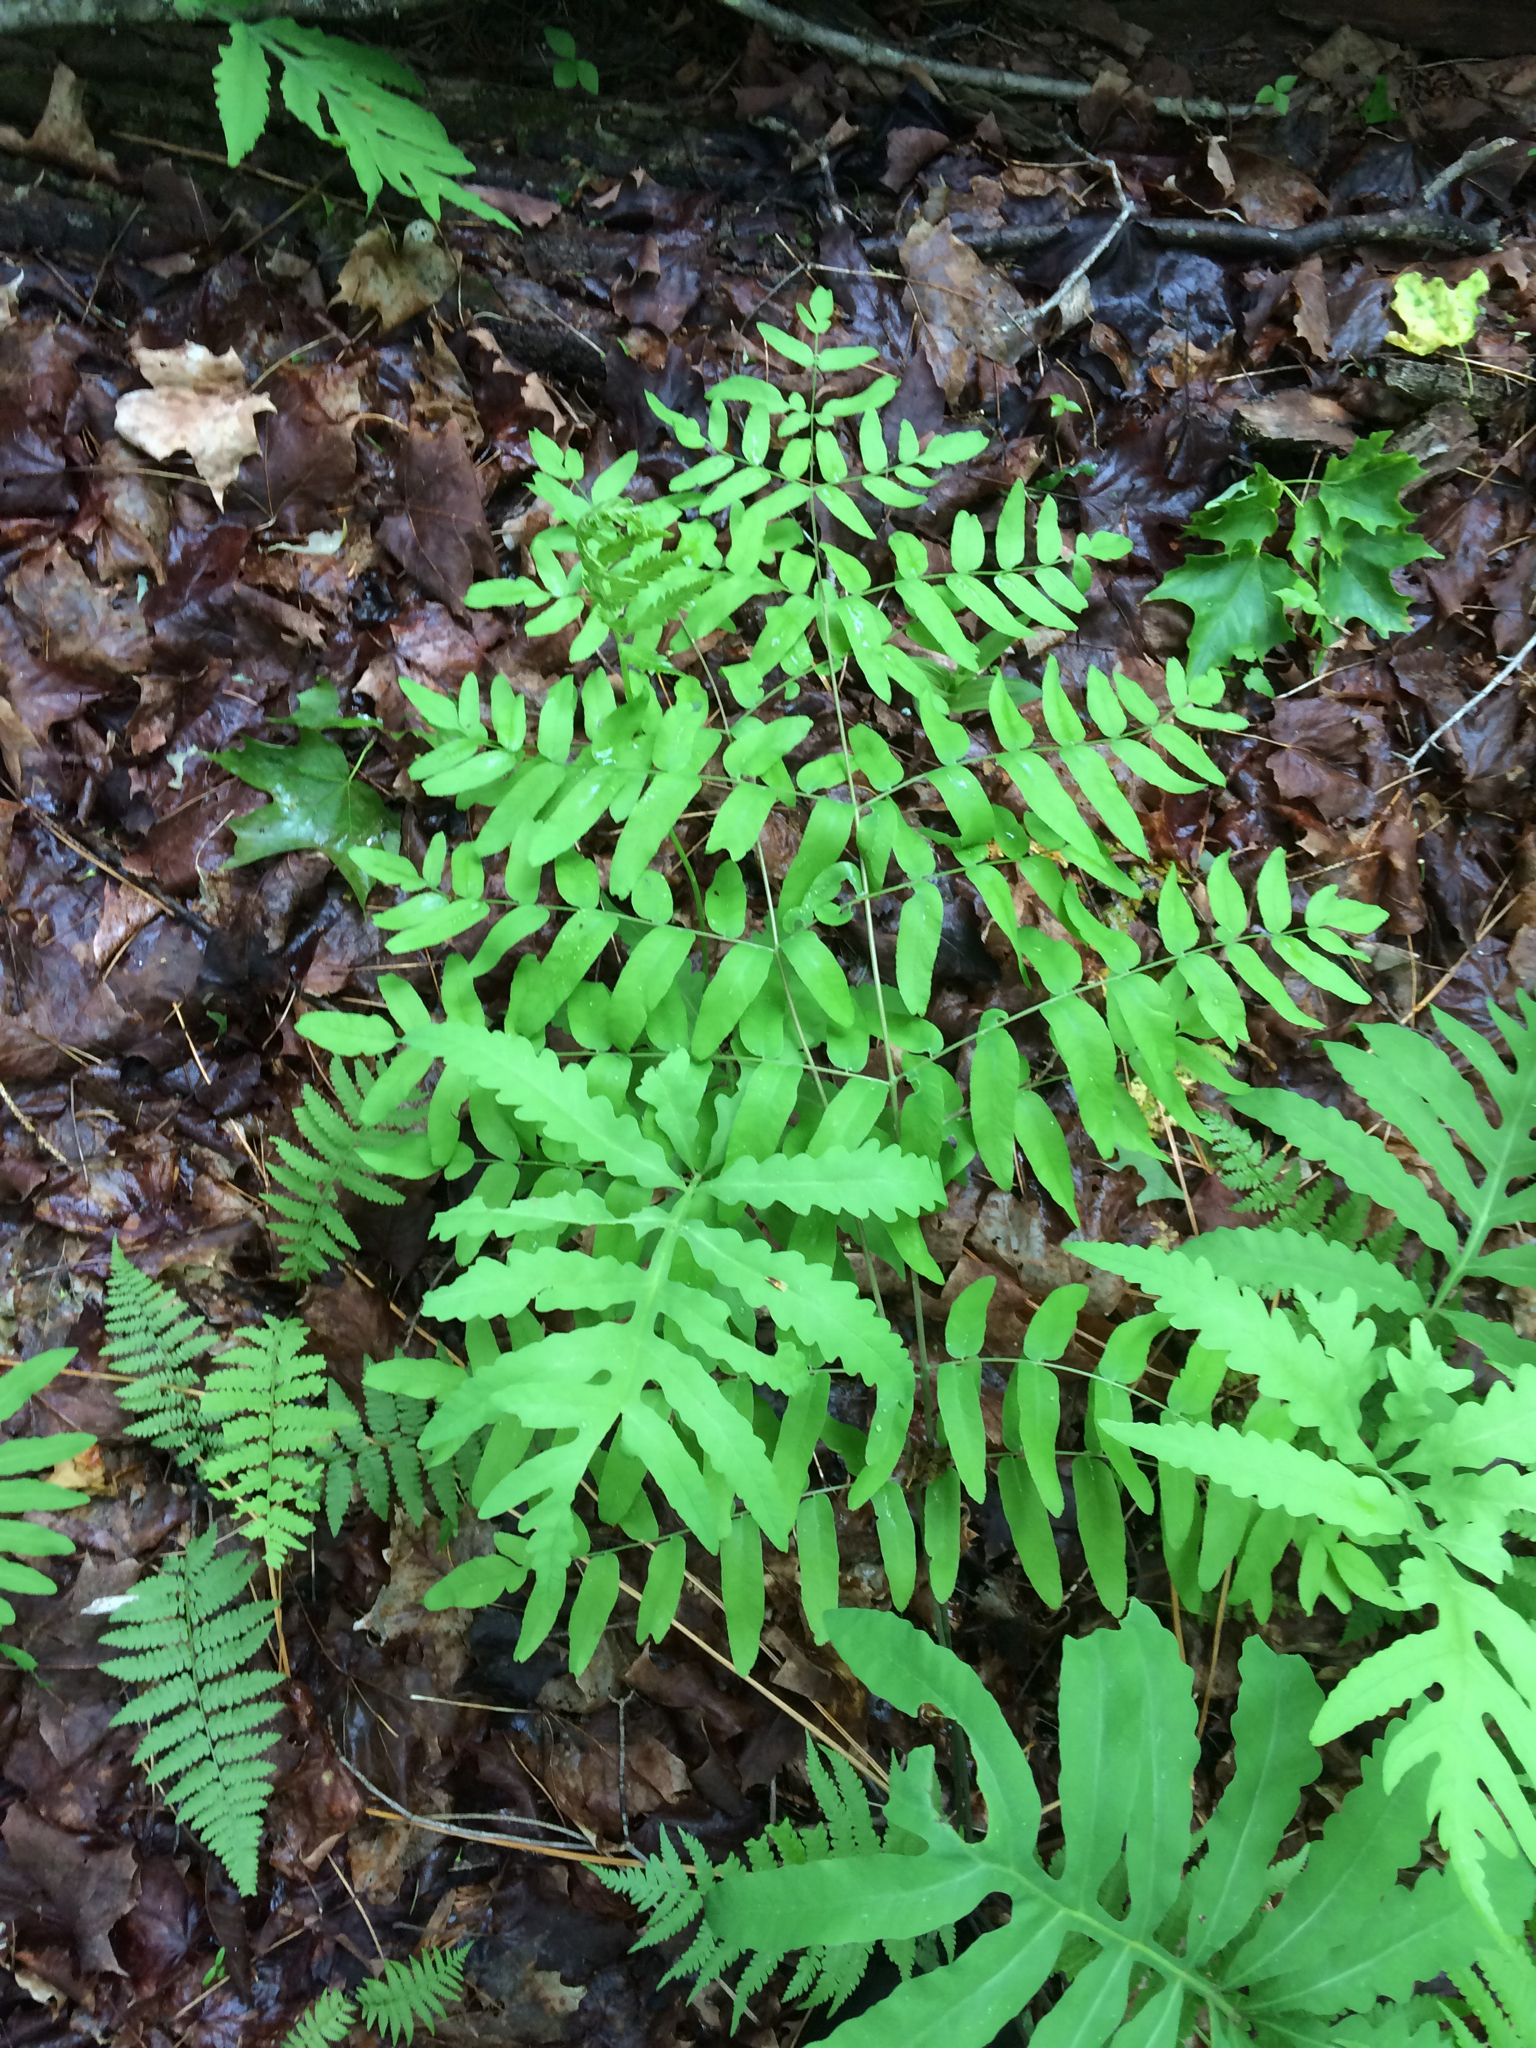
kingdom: Plantae
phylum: Tracheophyta
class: Polypodiopsida
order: Osmundales
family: Osmundaceae
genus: Osmunda
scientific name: Osmunda spectabilis
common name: American royal fern
